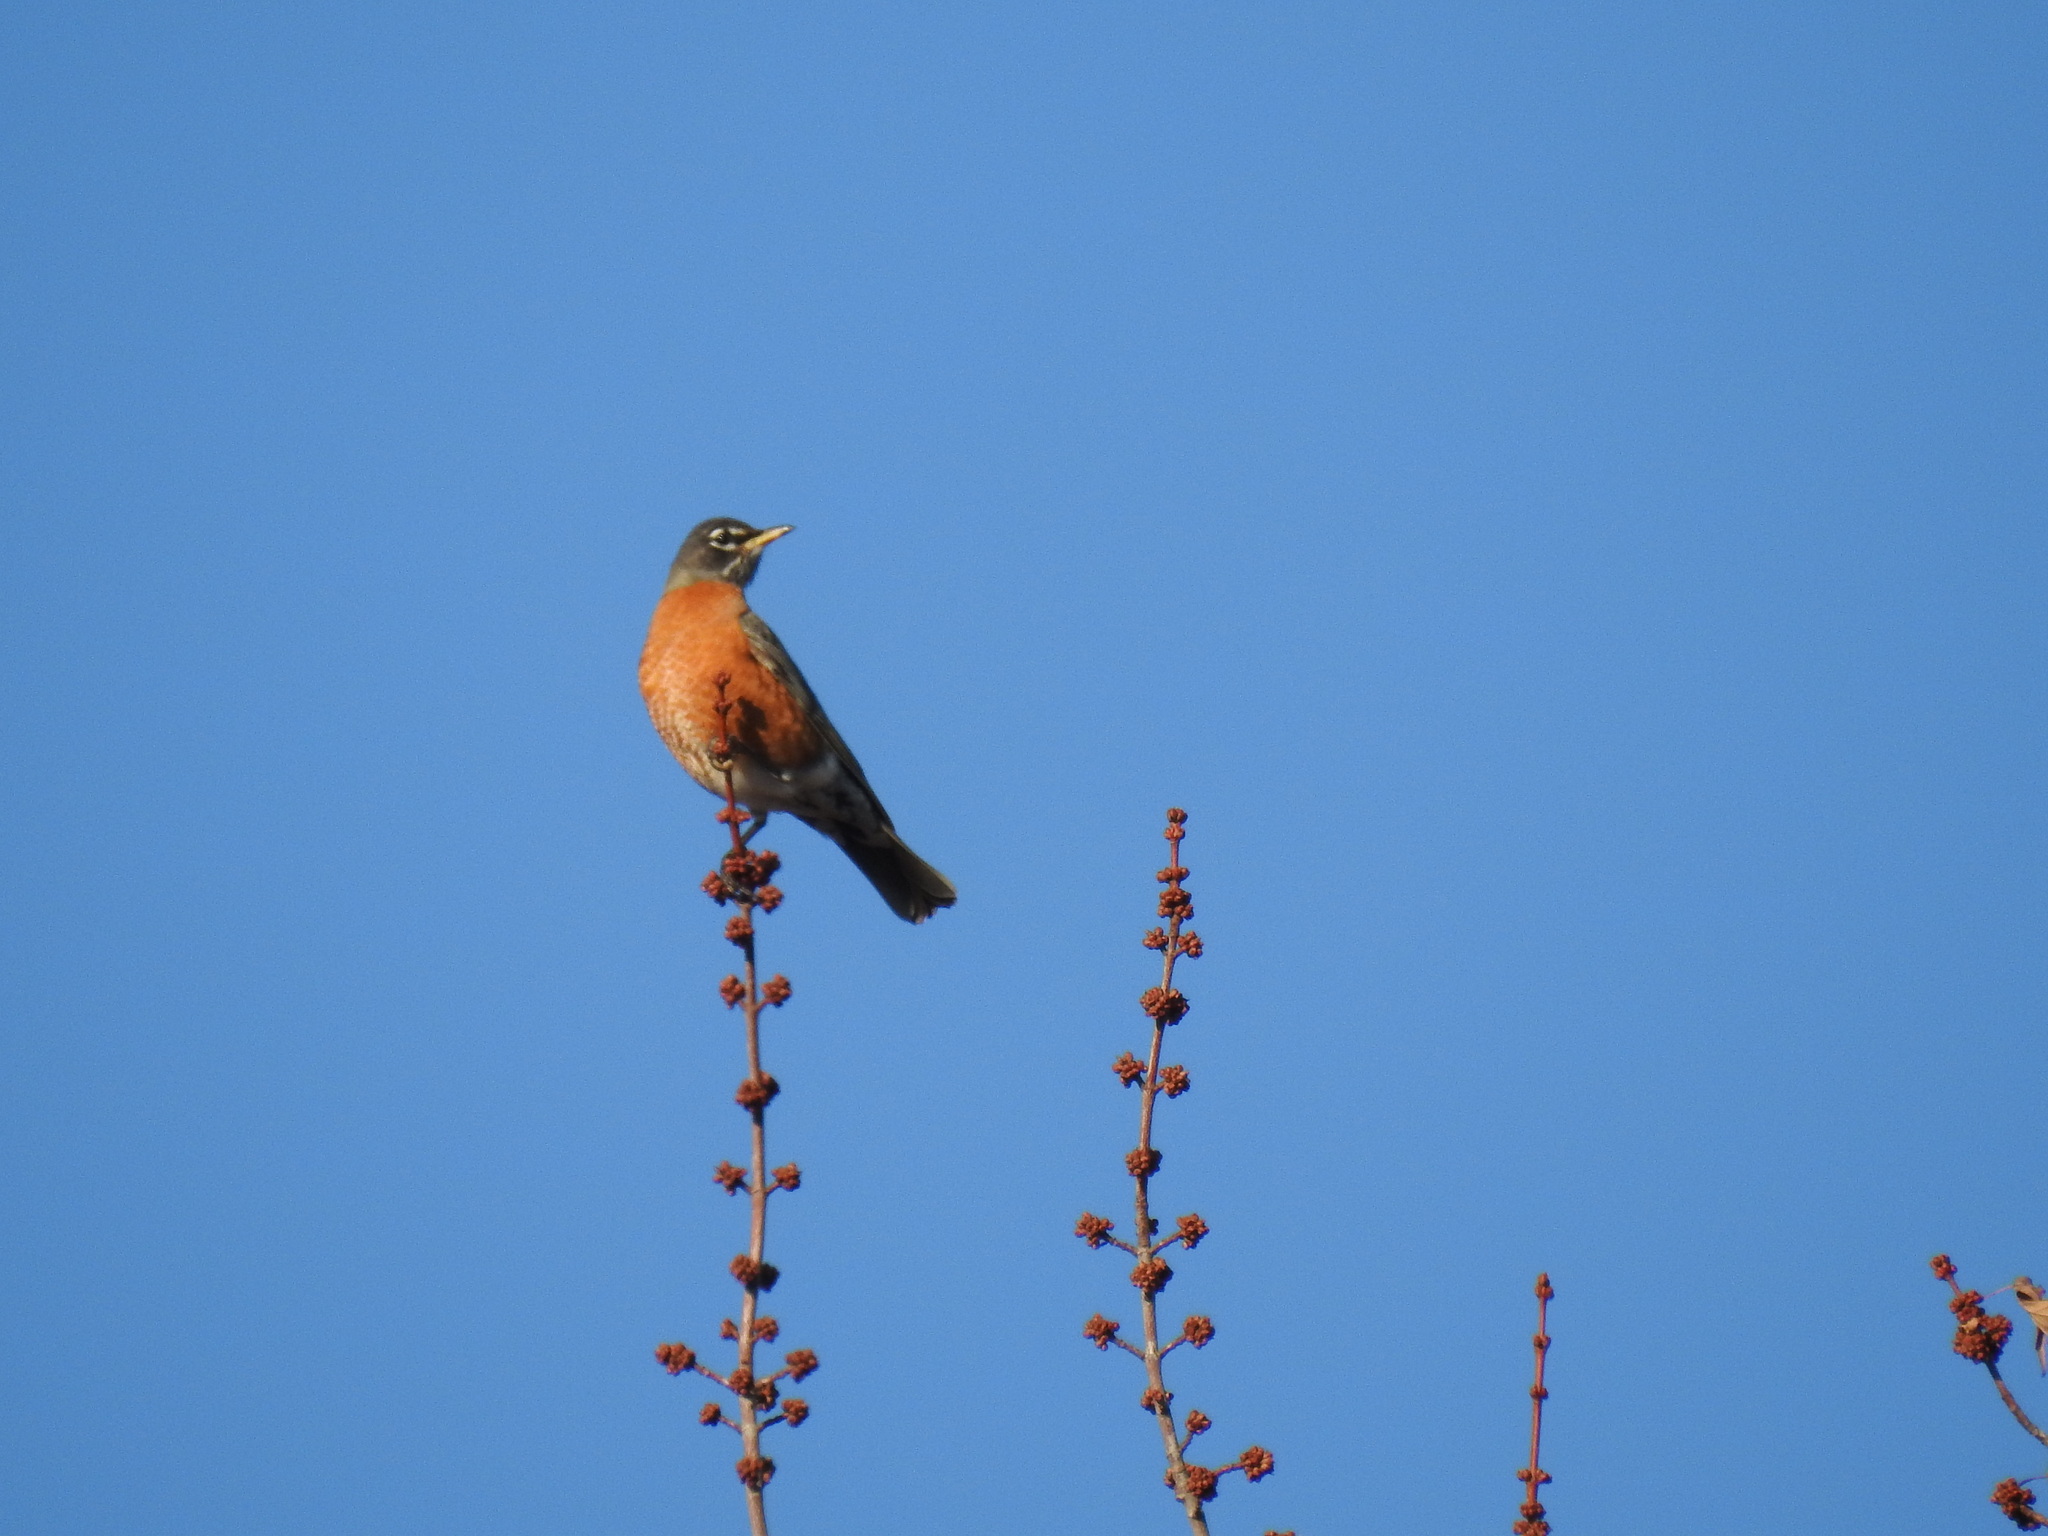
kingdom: Animalia
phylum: Chordata
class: Aves
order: Passeriformes
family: Turdidae
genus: Turdus
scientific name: Turdus migratorius
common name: American robin
